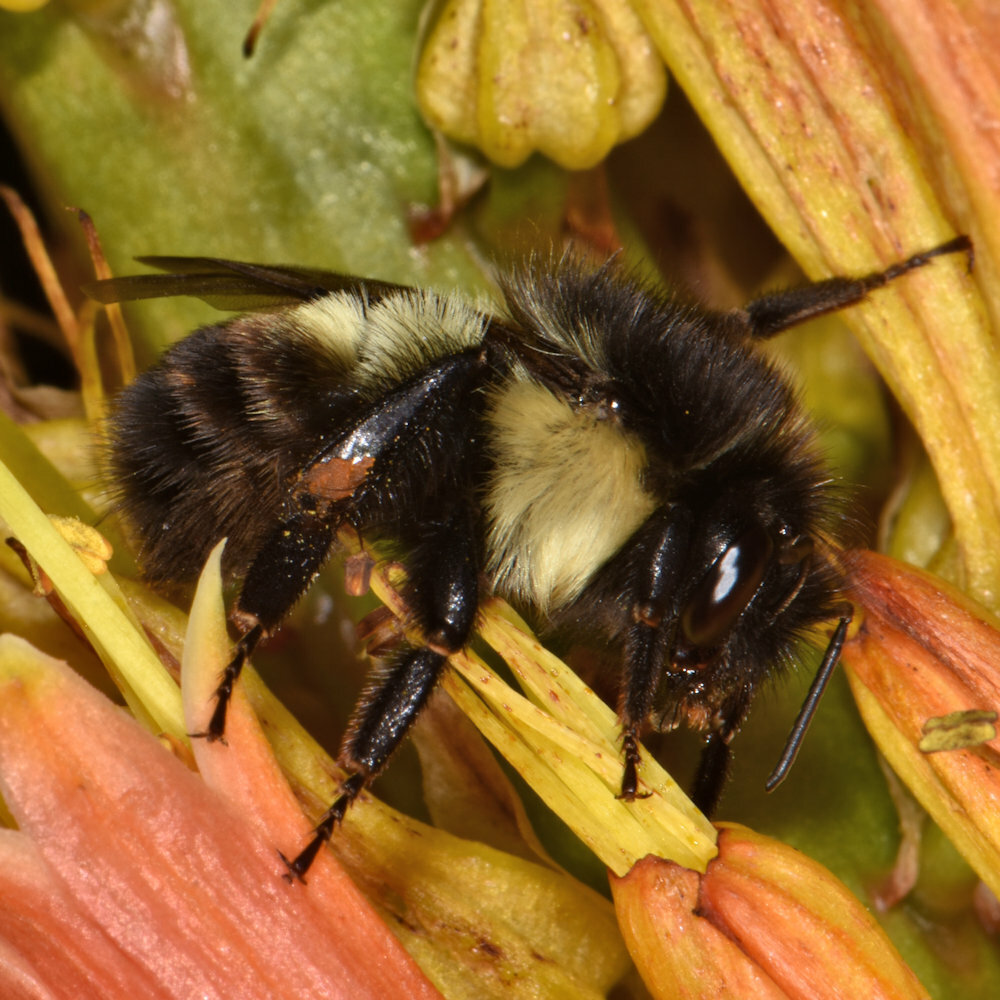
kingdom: Animalia
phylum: Arthropoda
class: Insecta
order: Hymenoptera
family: Apidae
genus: Bombus
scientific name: Bombus ephippiatus
